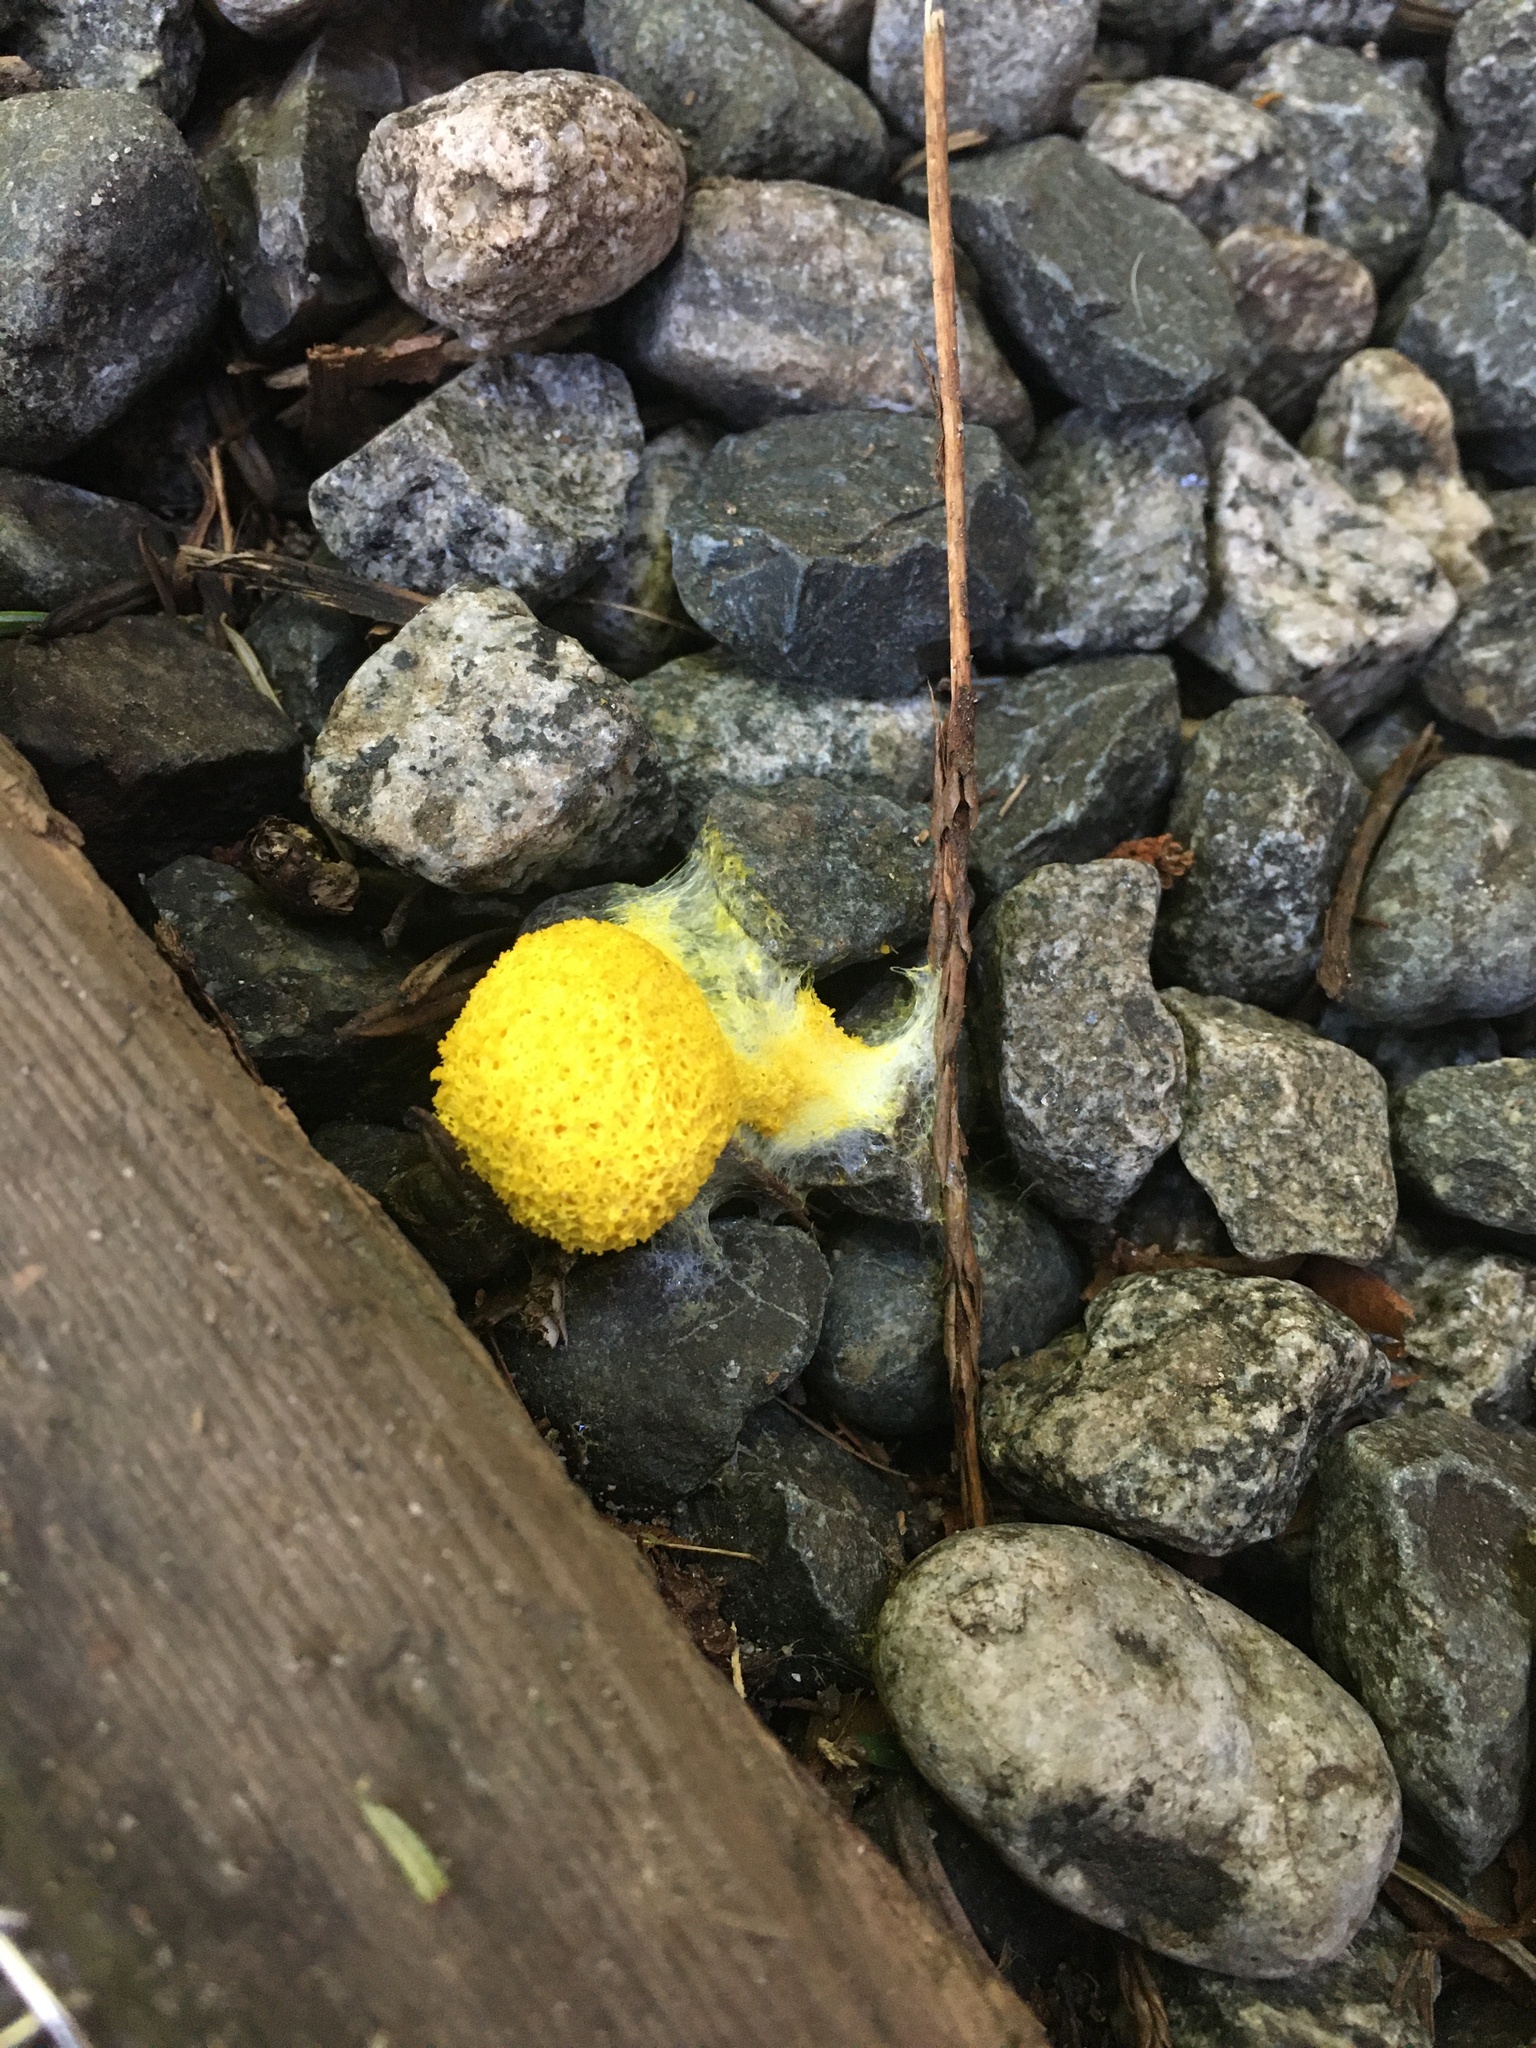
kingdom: Protozoa
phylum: Mycetozoa
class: Myxomycetes
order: Physarales
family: Physaraceae
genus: Fuligo
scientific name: Fuligo septica
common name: Dog vomit slime mold
